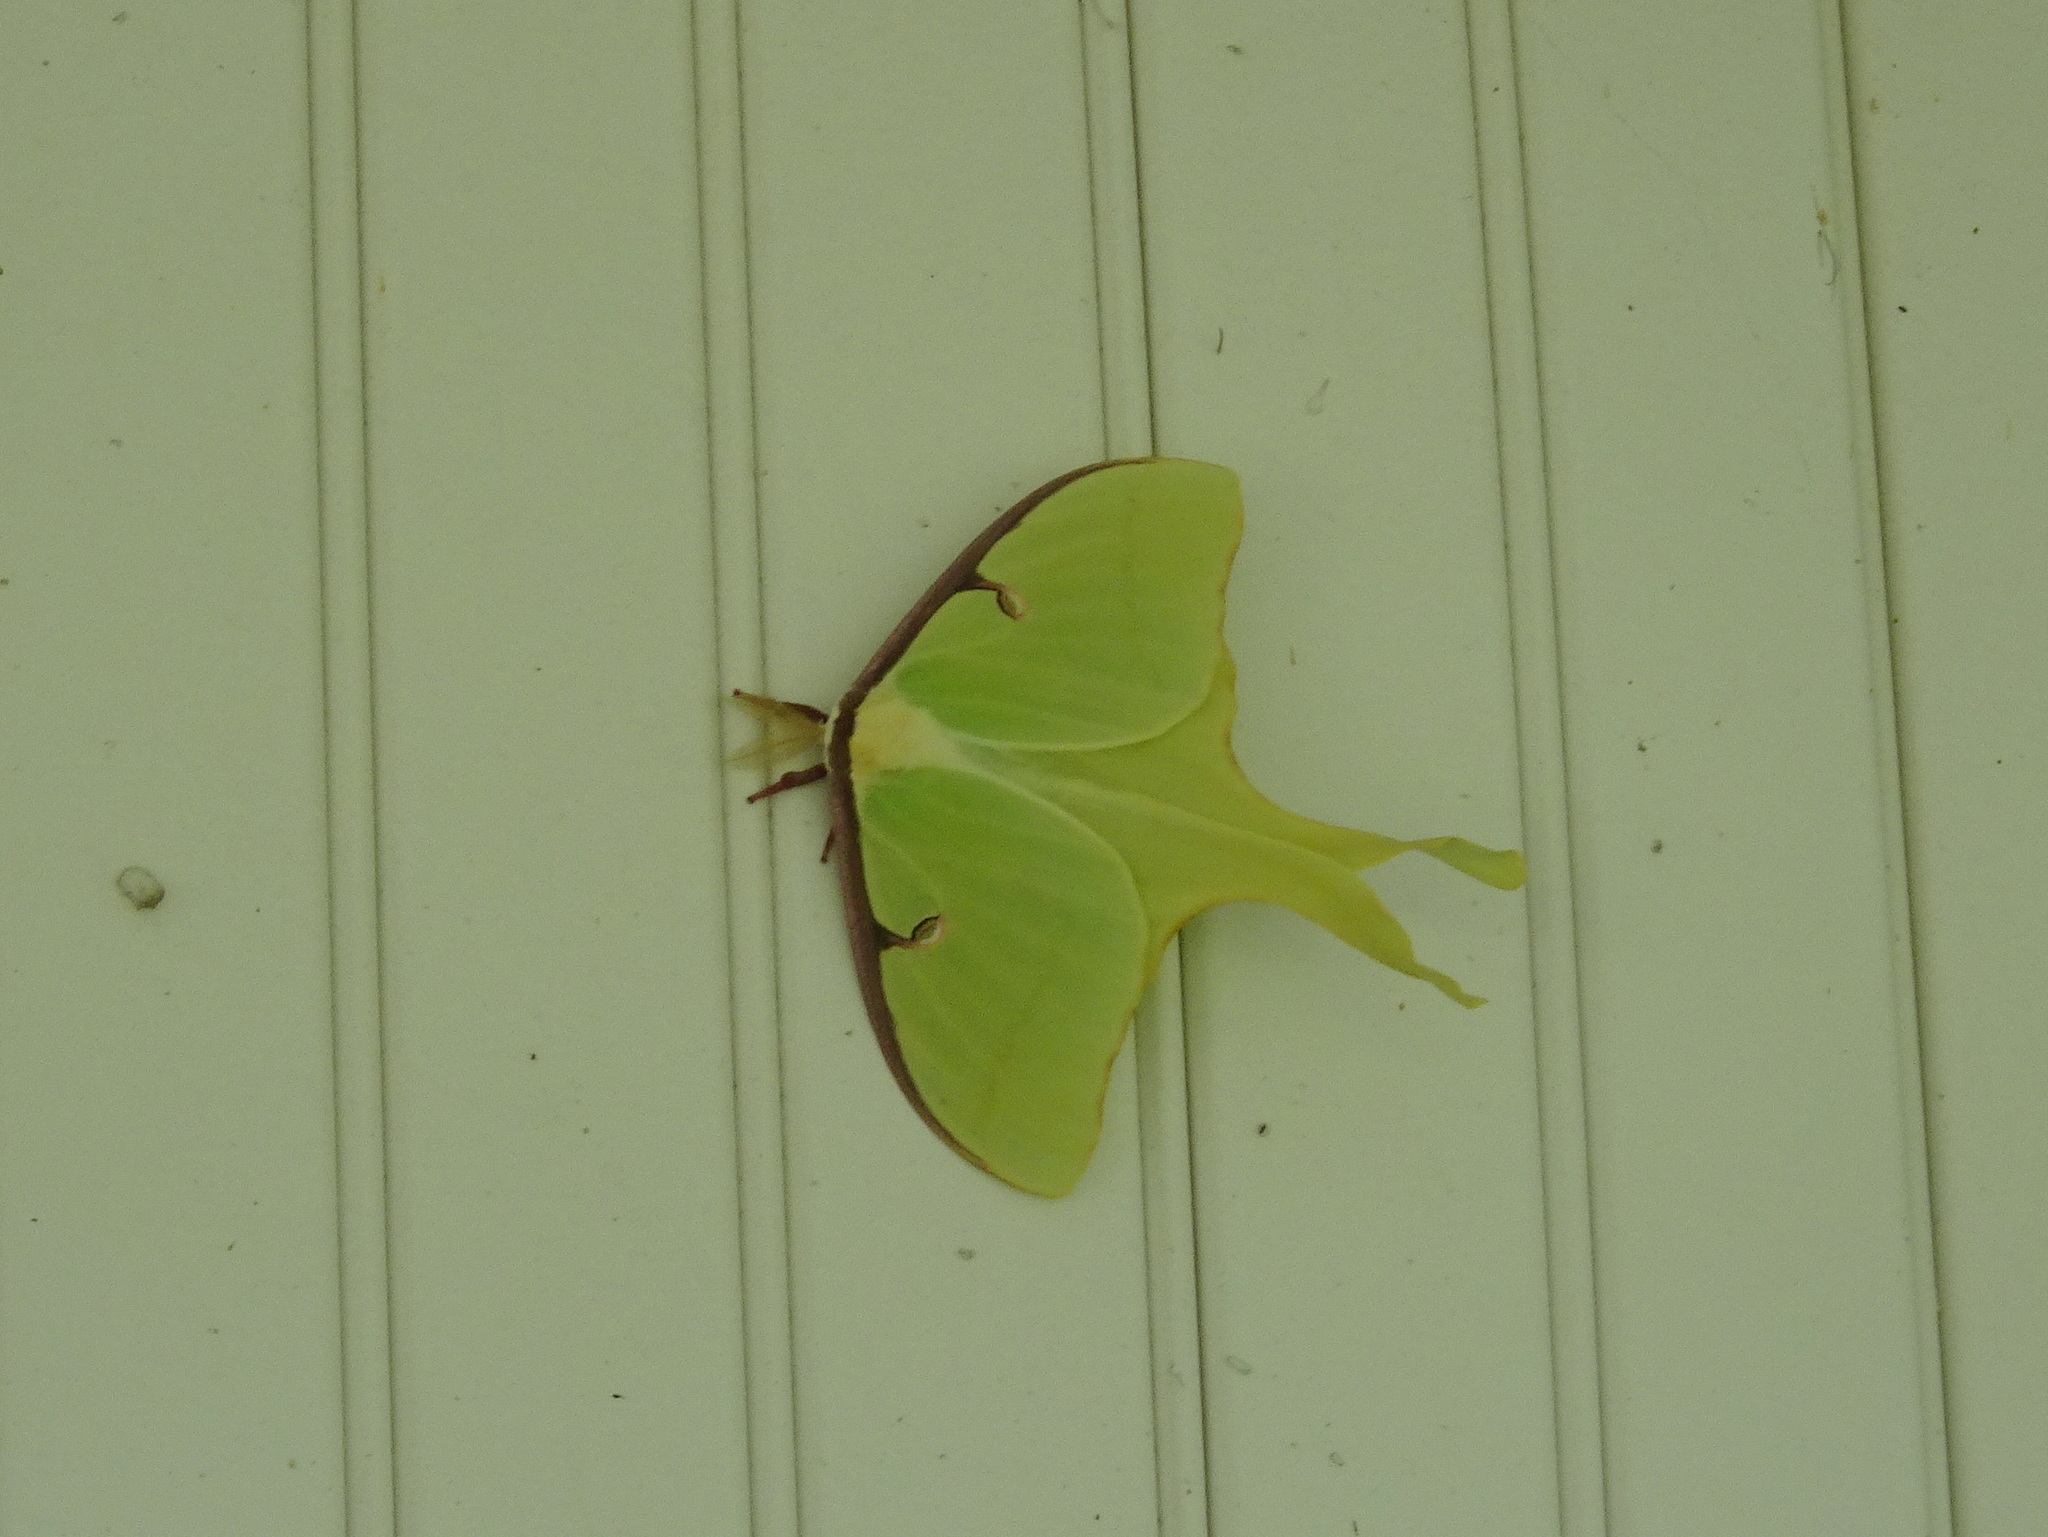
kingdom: Animalia
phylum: Arthropoda
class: Insecta
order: Lepidoptera
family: Saturniidae
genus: Actias
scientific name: Actias luna
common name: Luna moth
